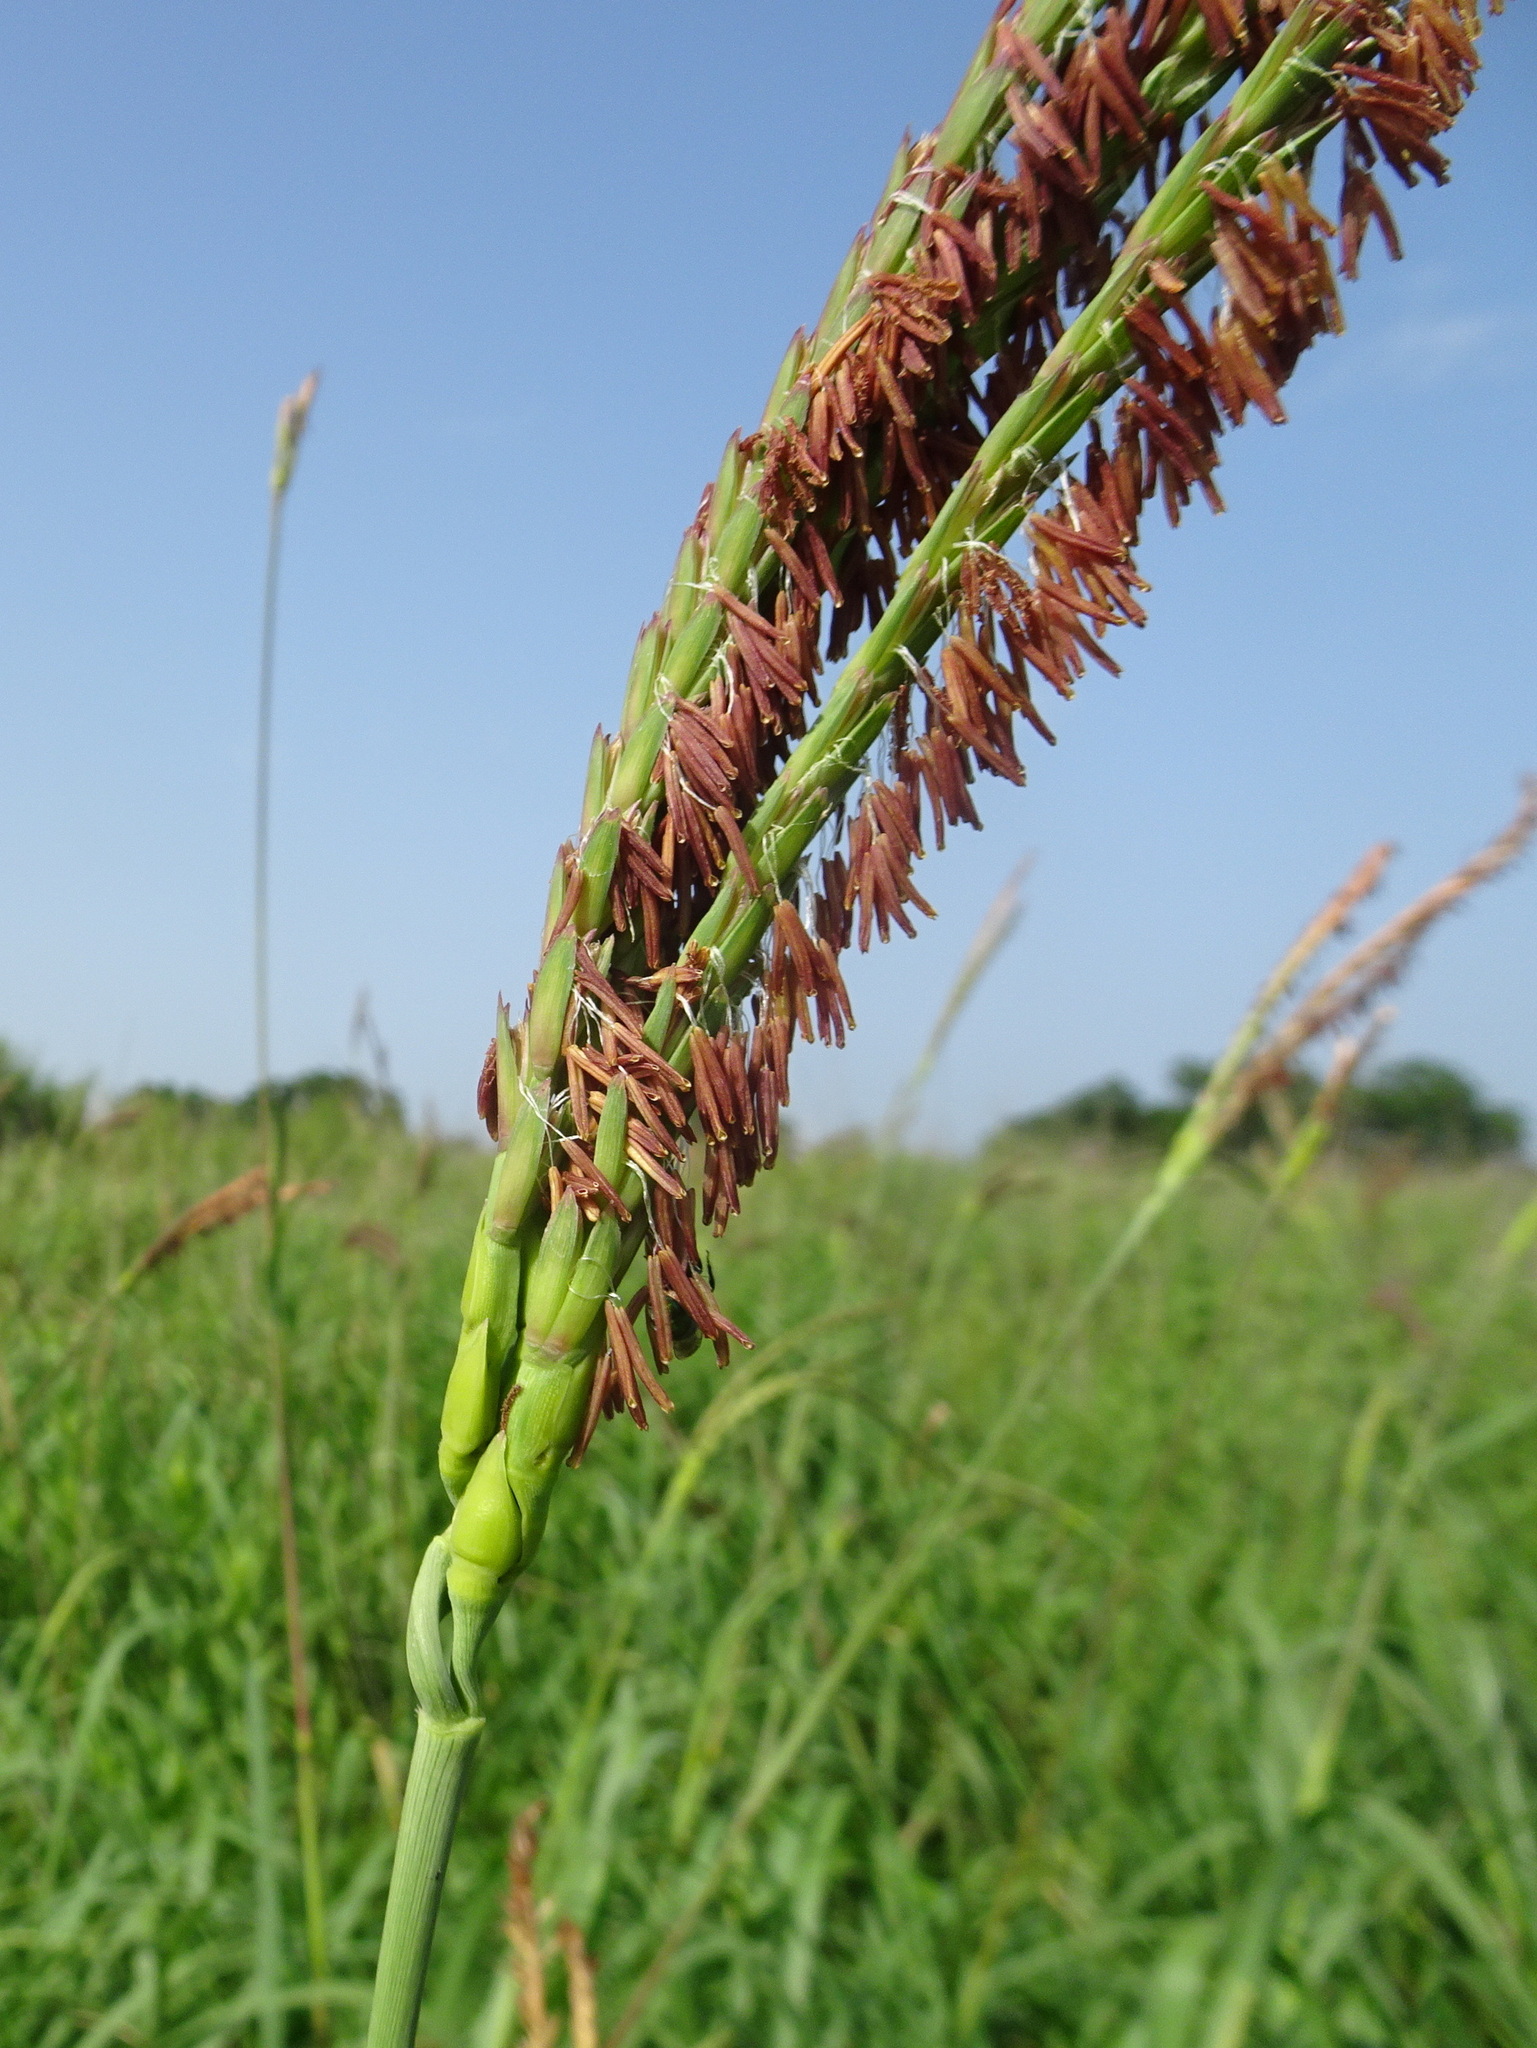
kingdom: Plantae
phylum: Tracheophyta
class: Liliopsida
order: Poales
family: Poaceae
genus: Tripsacum
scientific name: Tripsacum dactyloides
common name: Buffalo-grass
